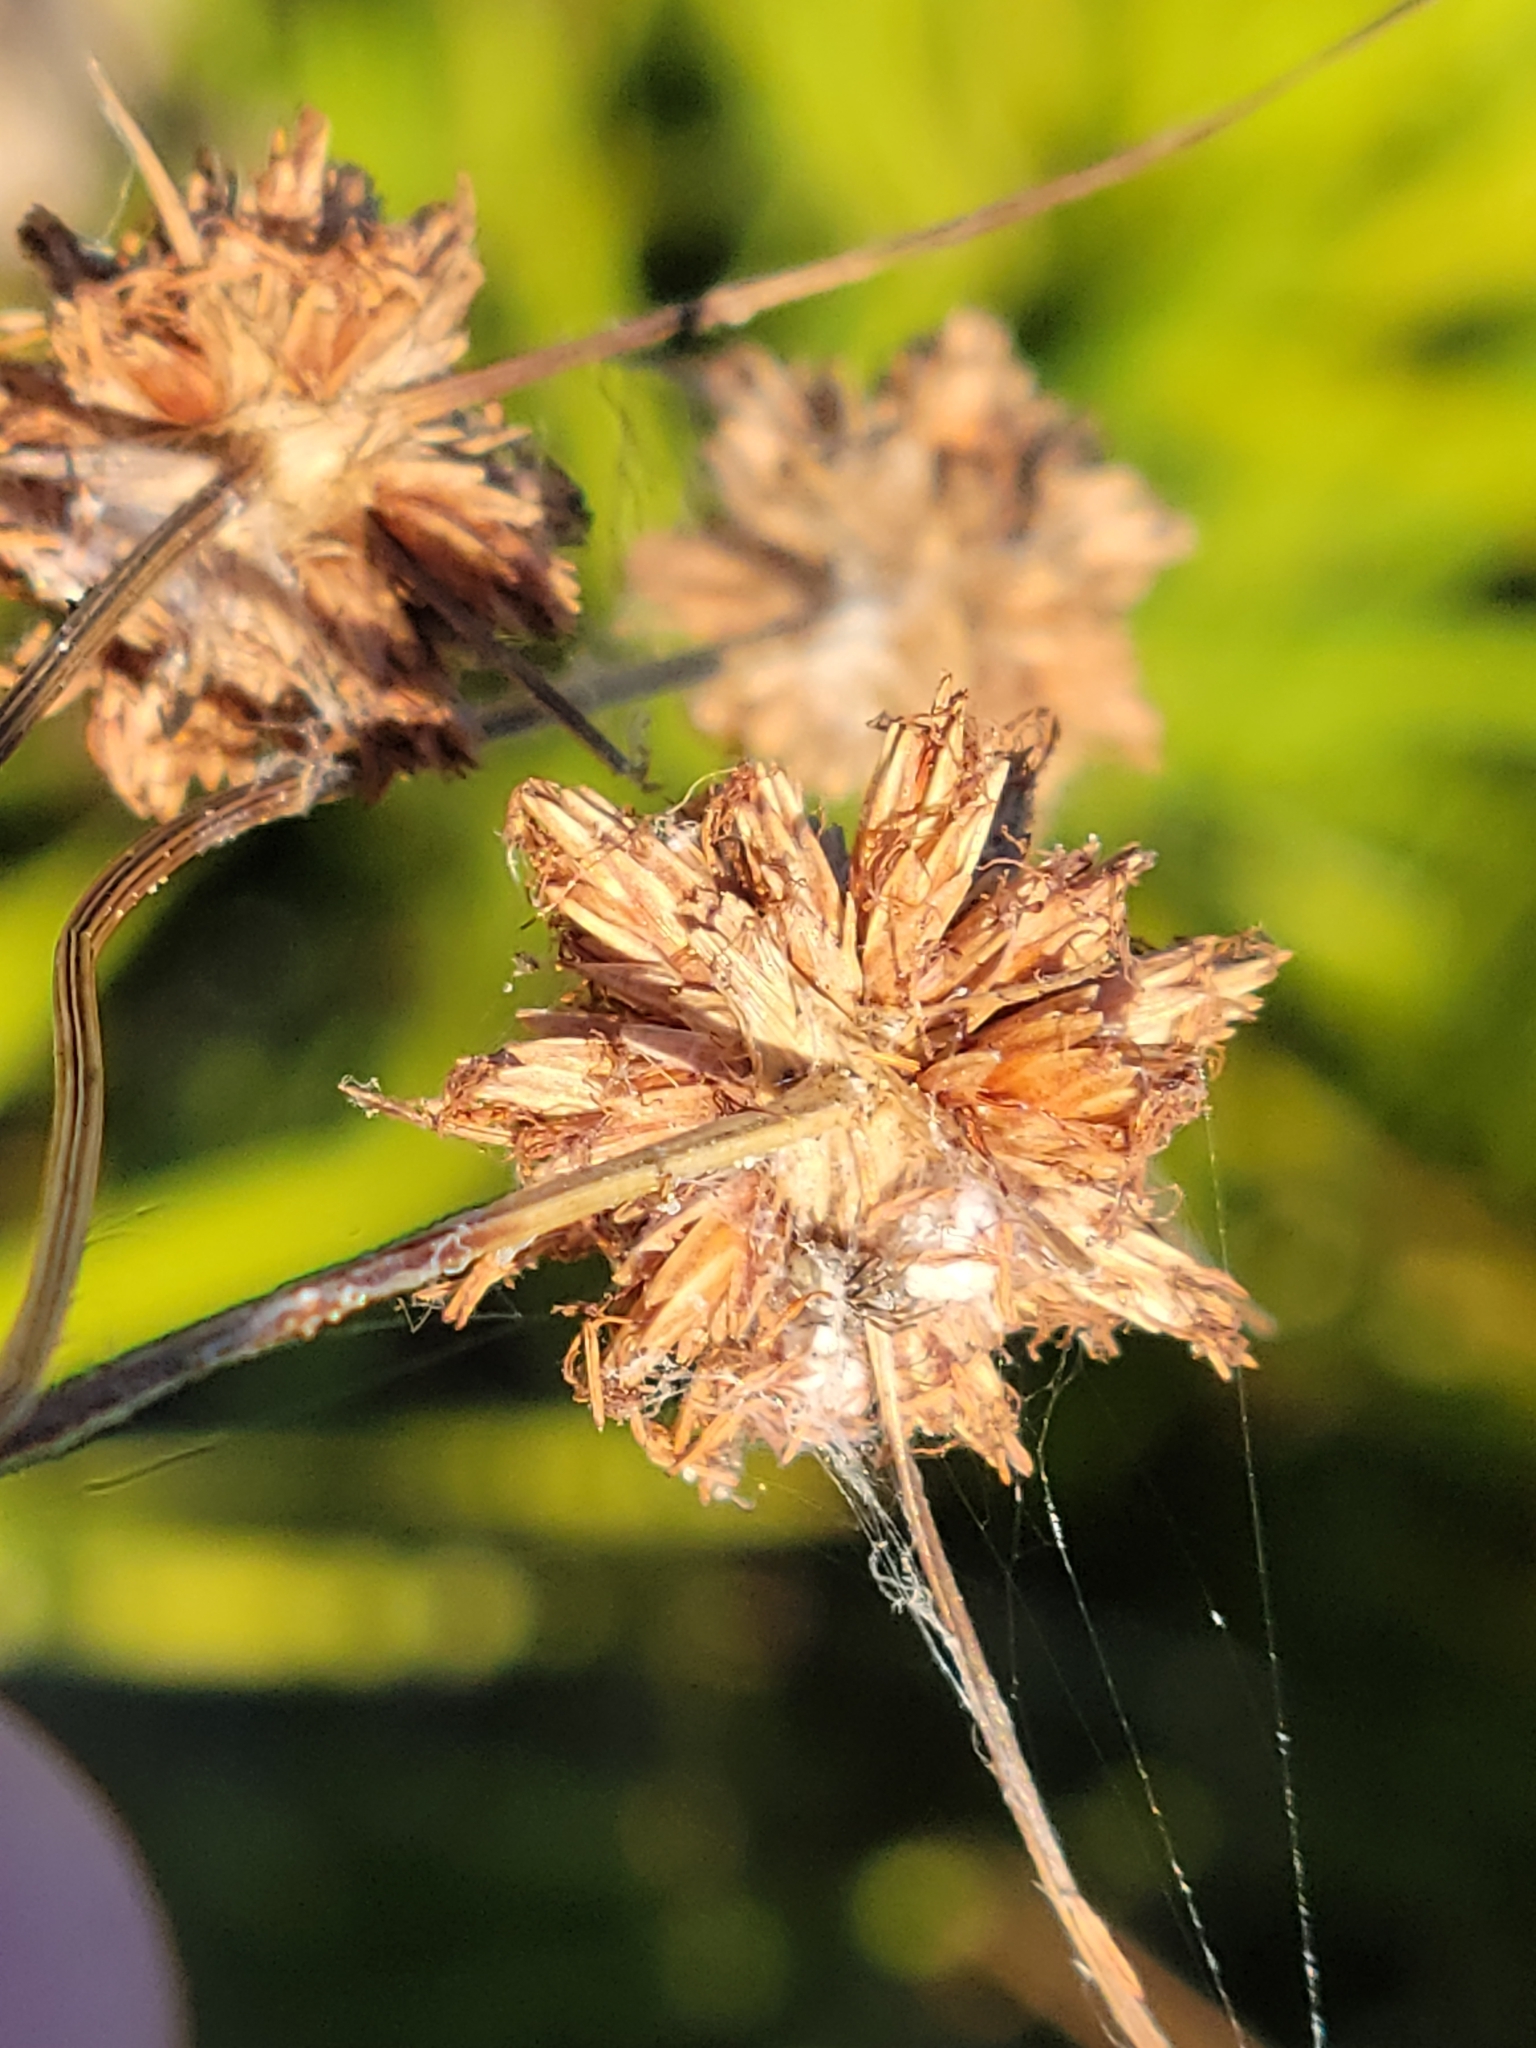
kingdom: Plantae
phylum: Tracheophyta
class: Liliopsida
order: Poales
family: Cyperaceae
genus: Bulbostylis
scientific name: Bulbostylis warei
